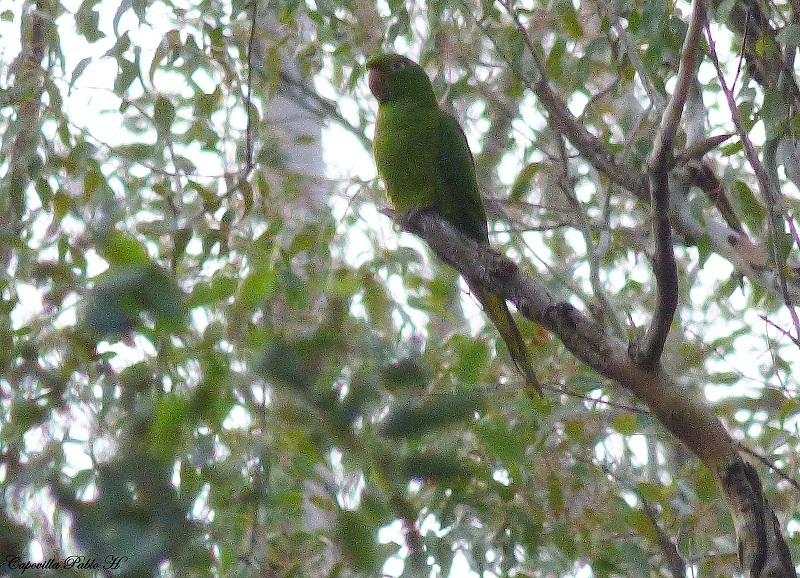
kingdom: Animalia
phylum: Chordata
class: Aves
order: Psittaciformes
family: Psittacidae
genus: Aratinga
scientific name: Aratinga leucophthalma
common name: White-eyed parakeet
